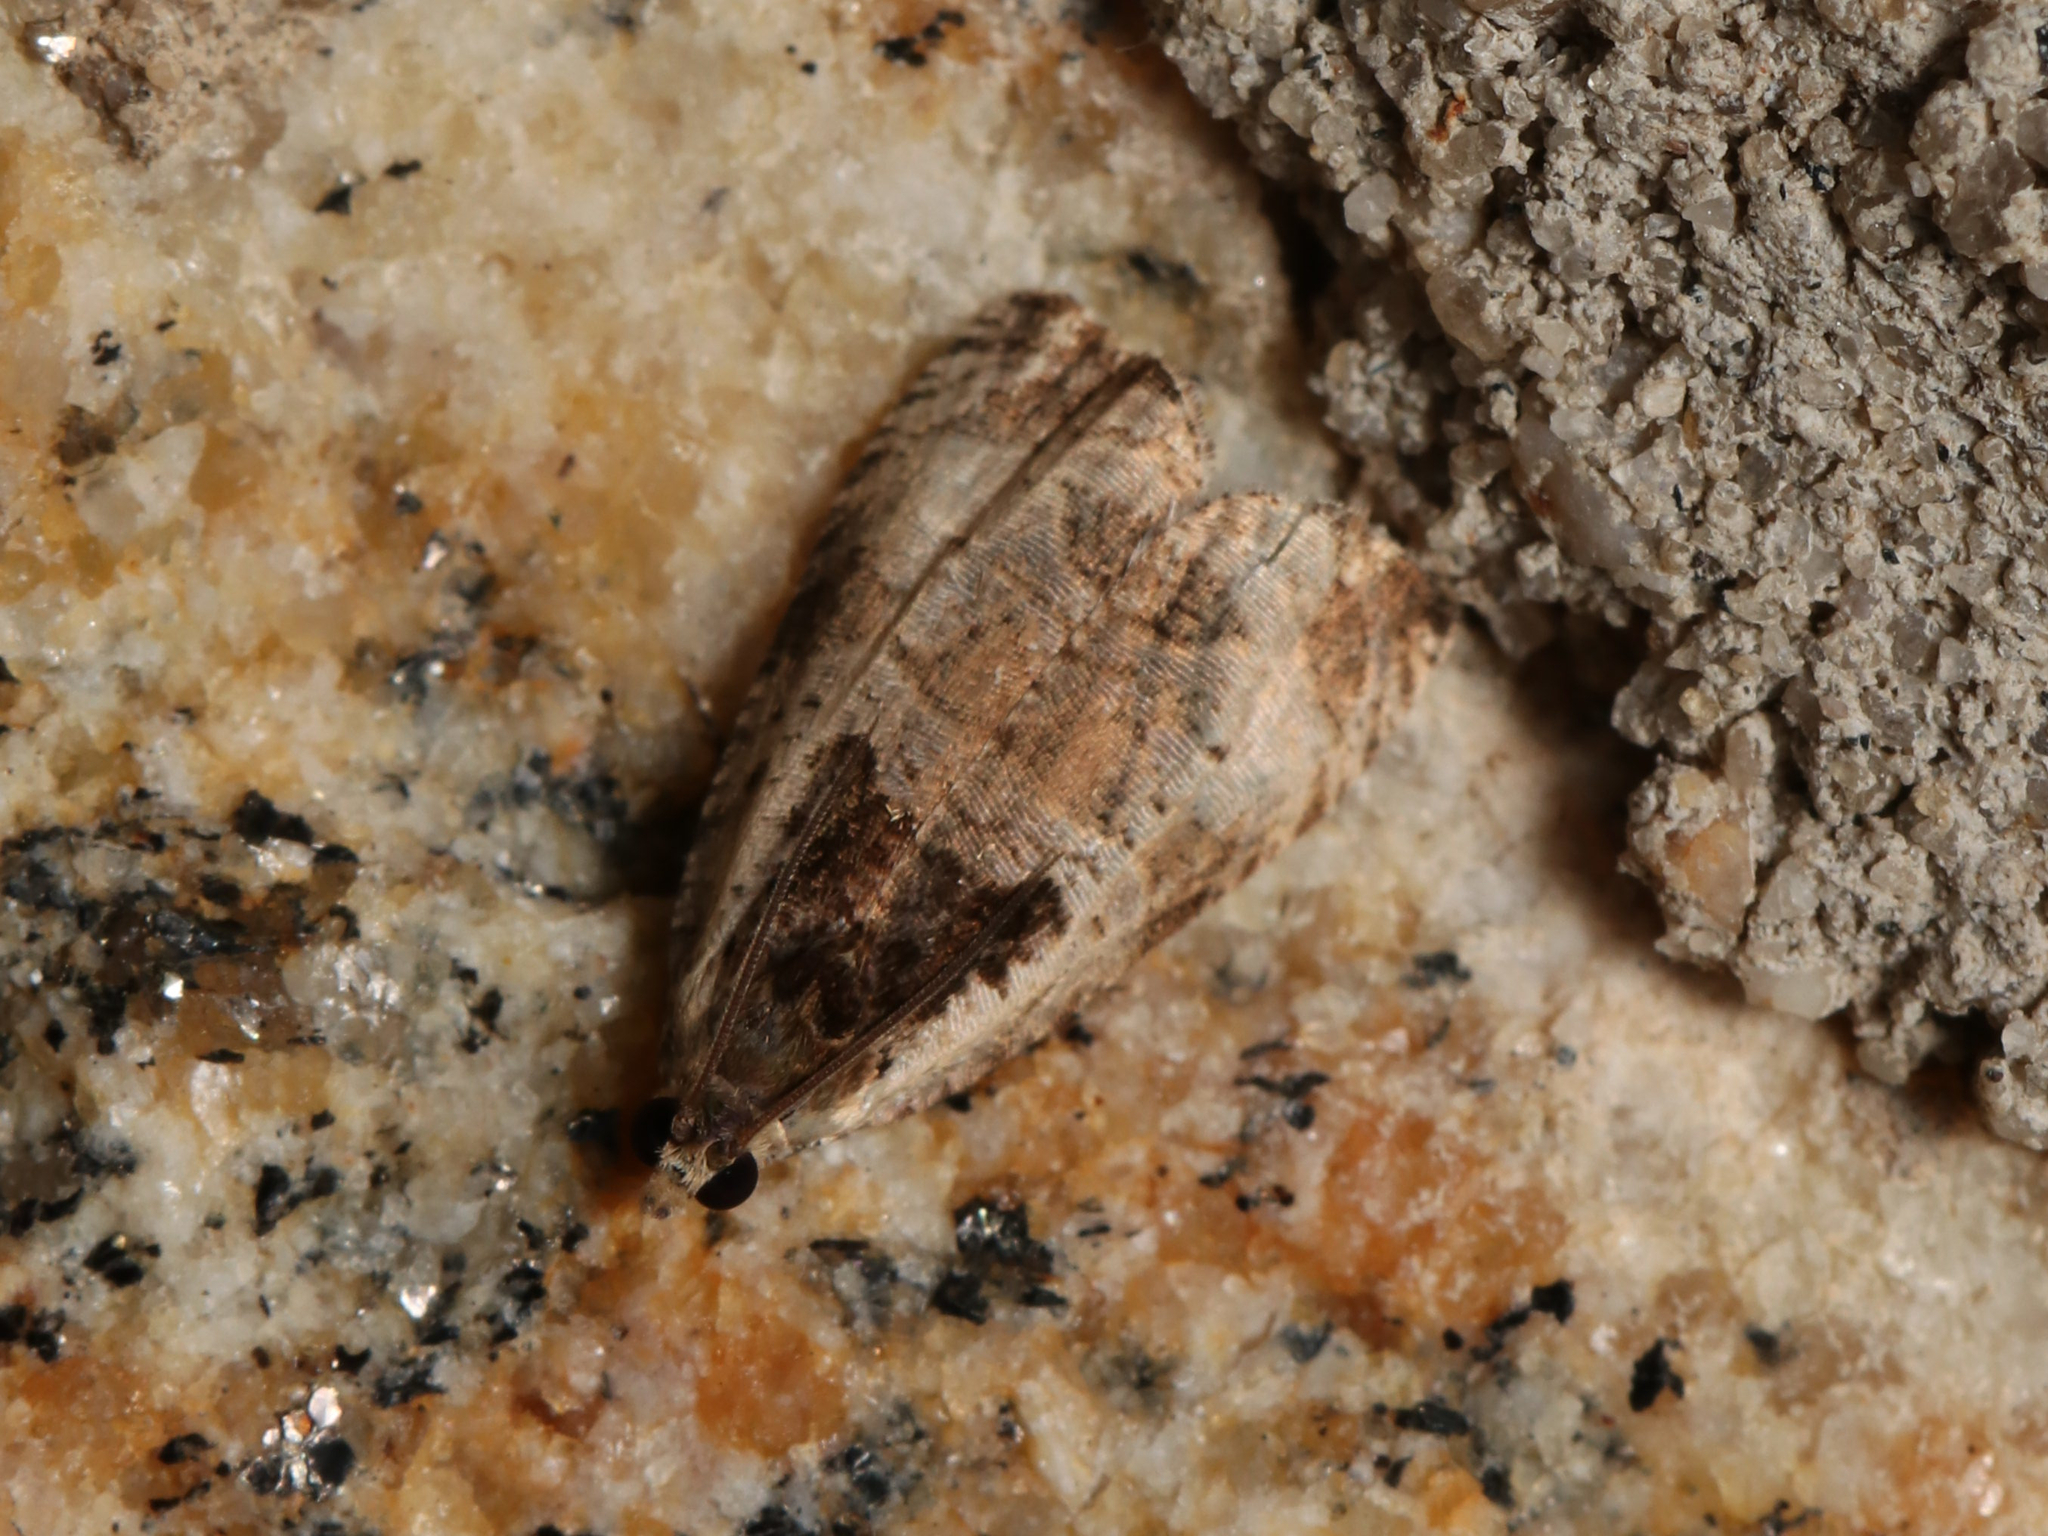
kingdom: Animalia
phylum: Arthropoda
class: Insecta
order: Lepidoptera
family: Tortricidae
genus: Olethreutes
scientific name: Olethreutes punctanum
